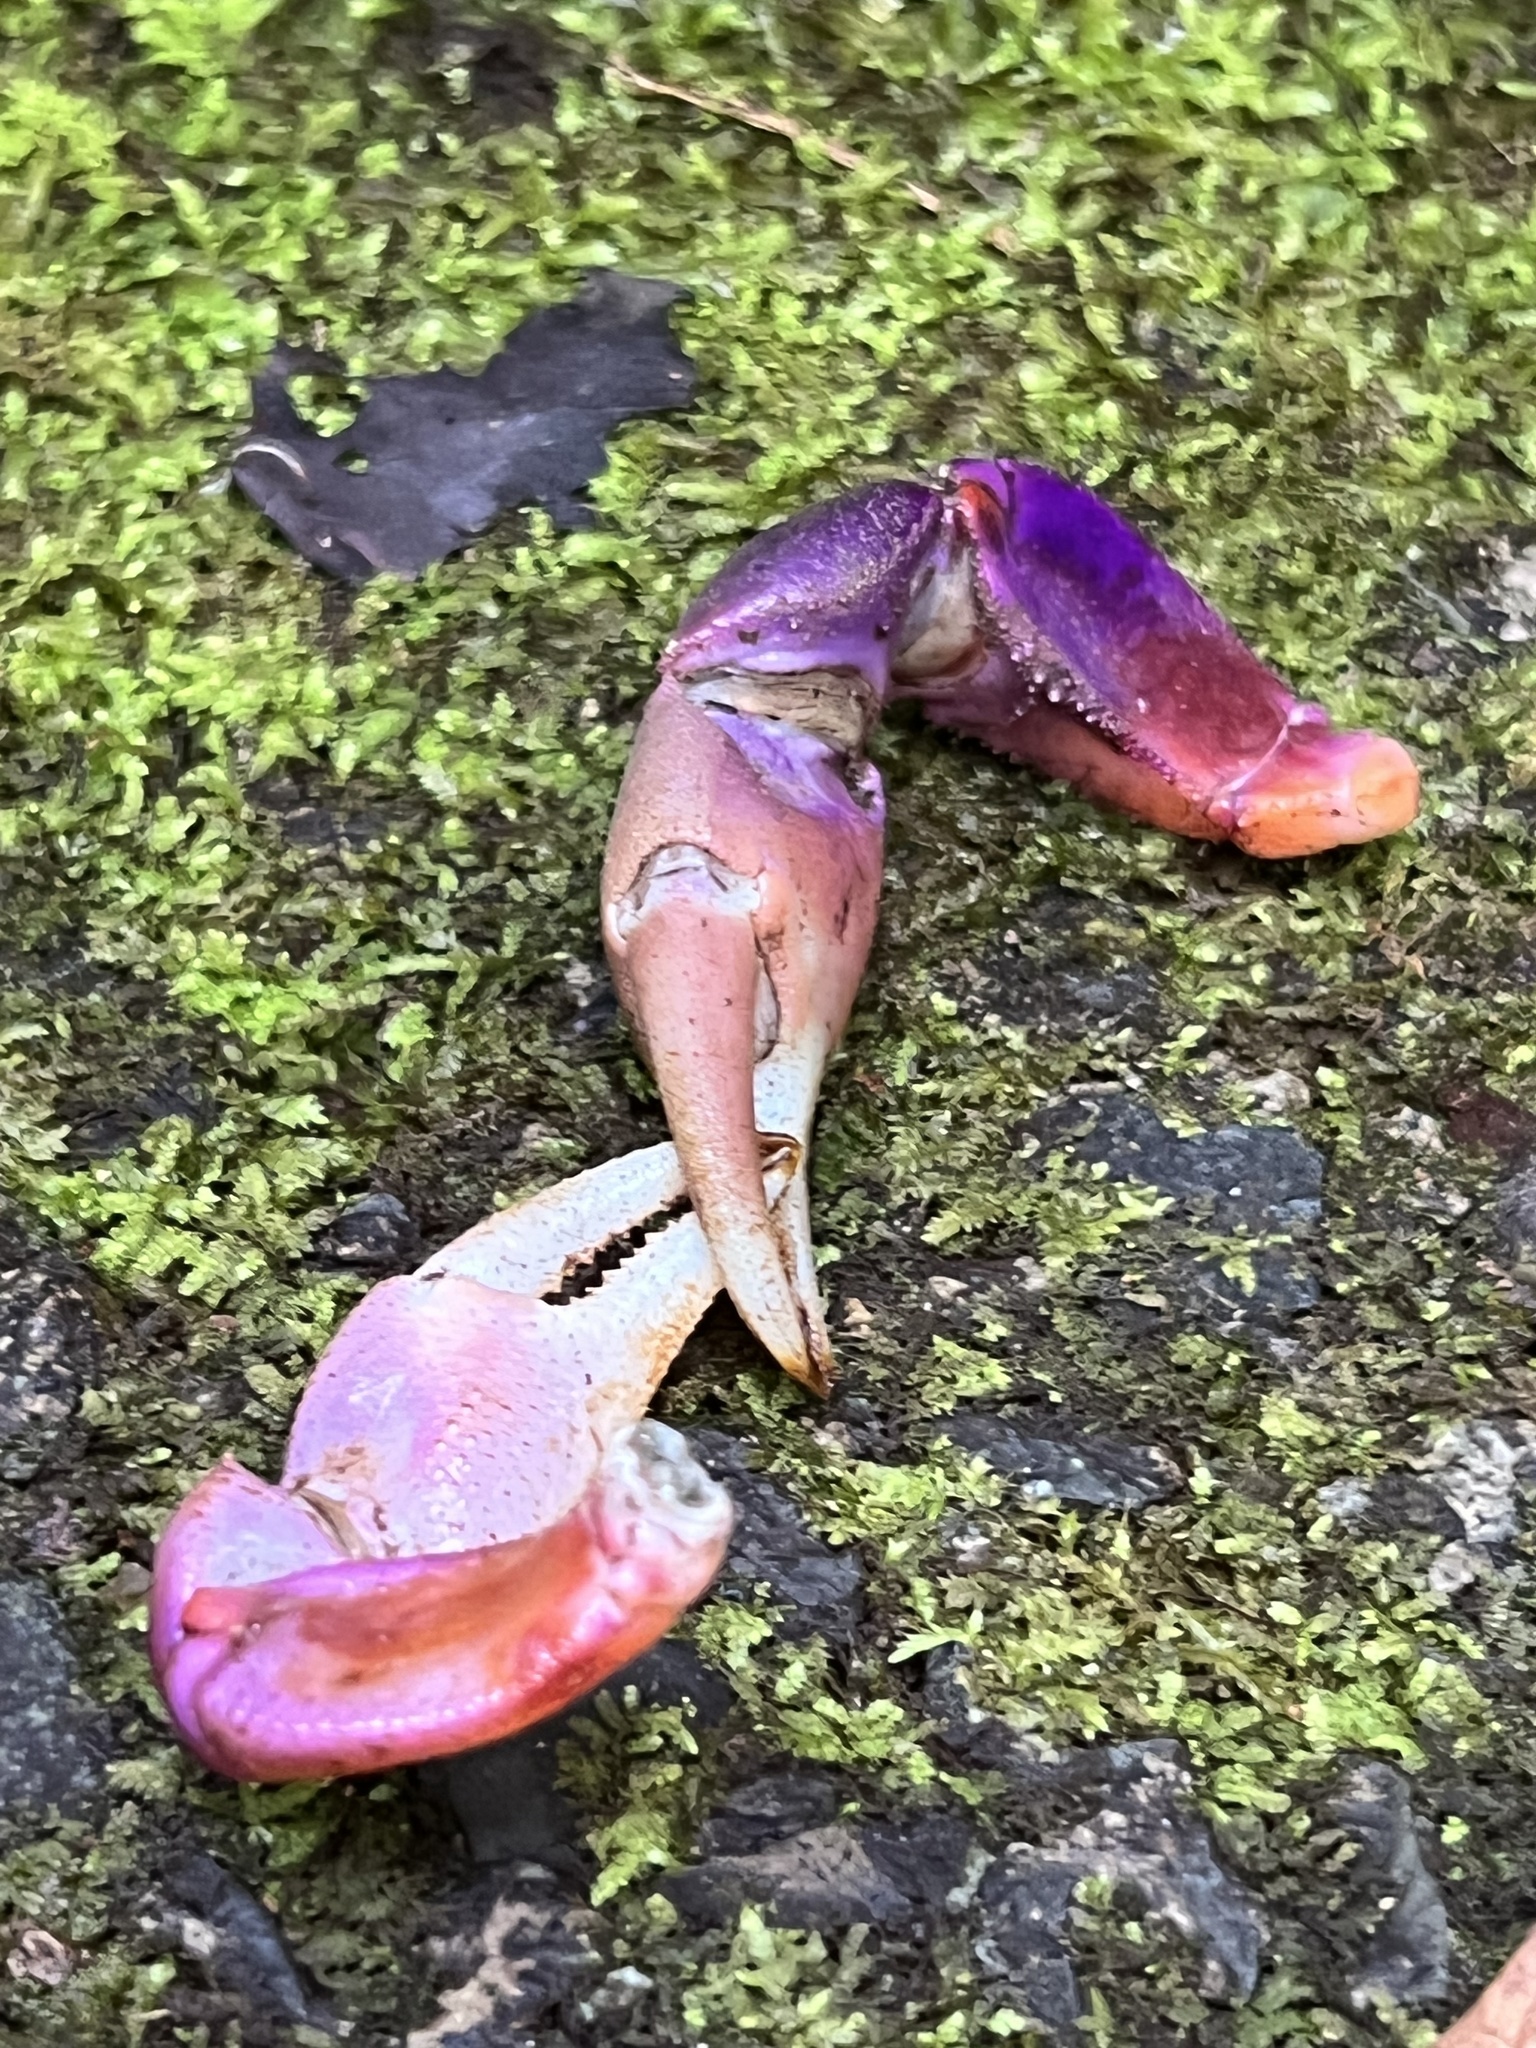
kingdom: Animalia
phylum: Arthropoda
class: Malacostraca
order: Decapoda
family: Gecarcinidae
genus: Cardisoma
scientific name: Cardisoma crassum
